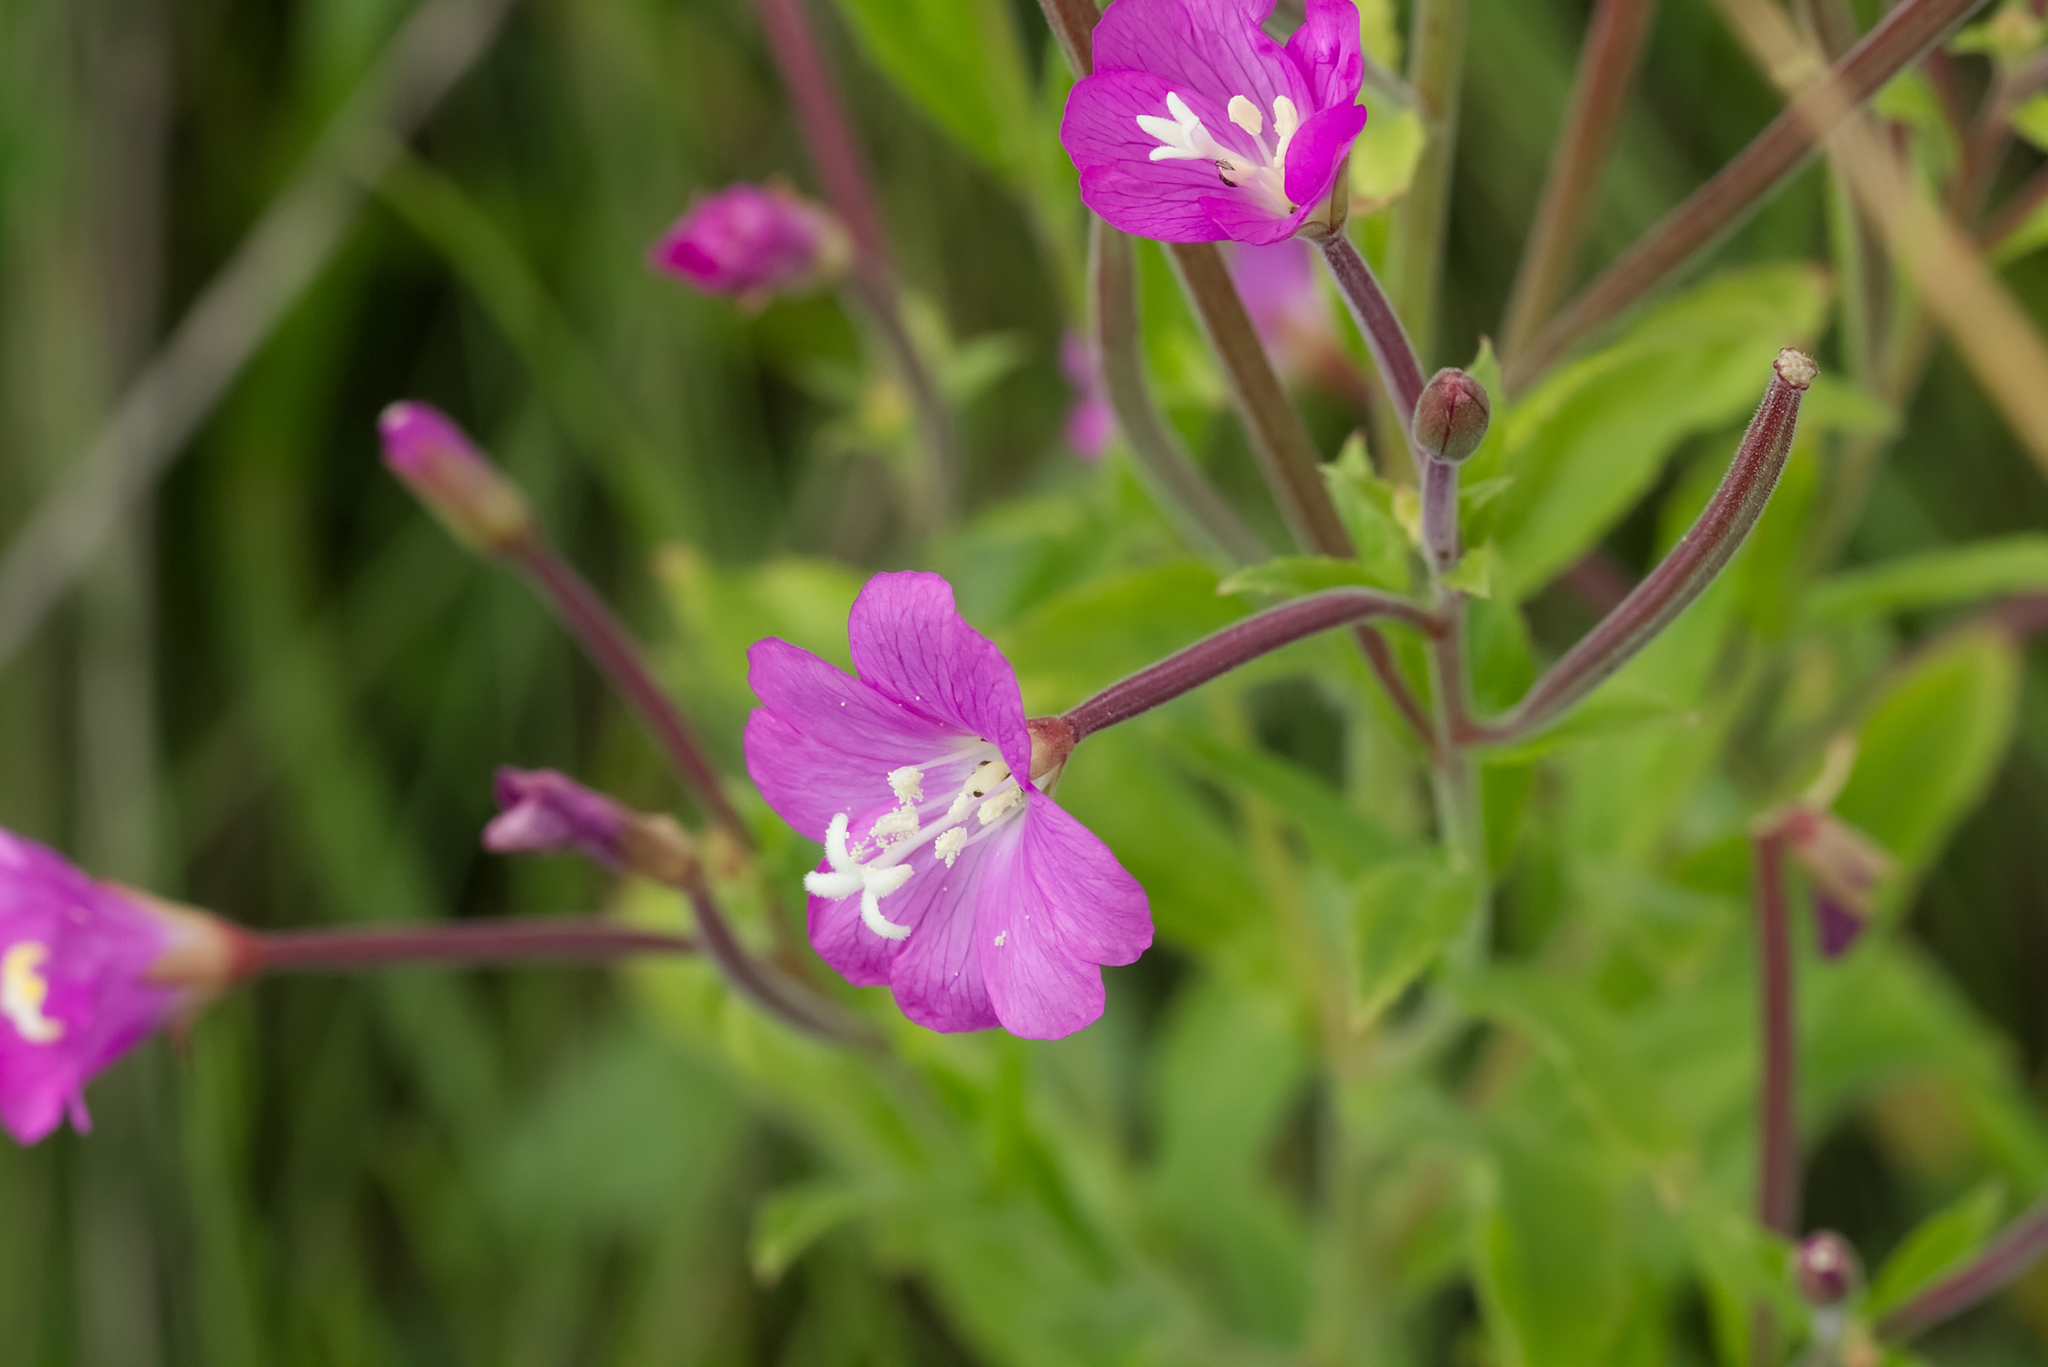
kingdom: Plantae
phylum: Tracheophyta
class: Magnoliopsida
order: Myrtales
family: Onagraceae
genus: Epilobium
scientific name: Epilobium hirsutum
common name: Great willowherb
